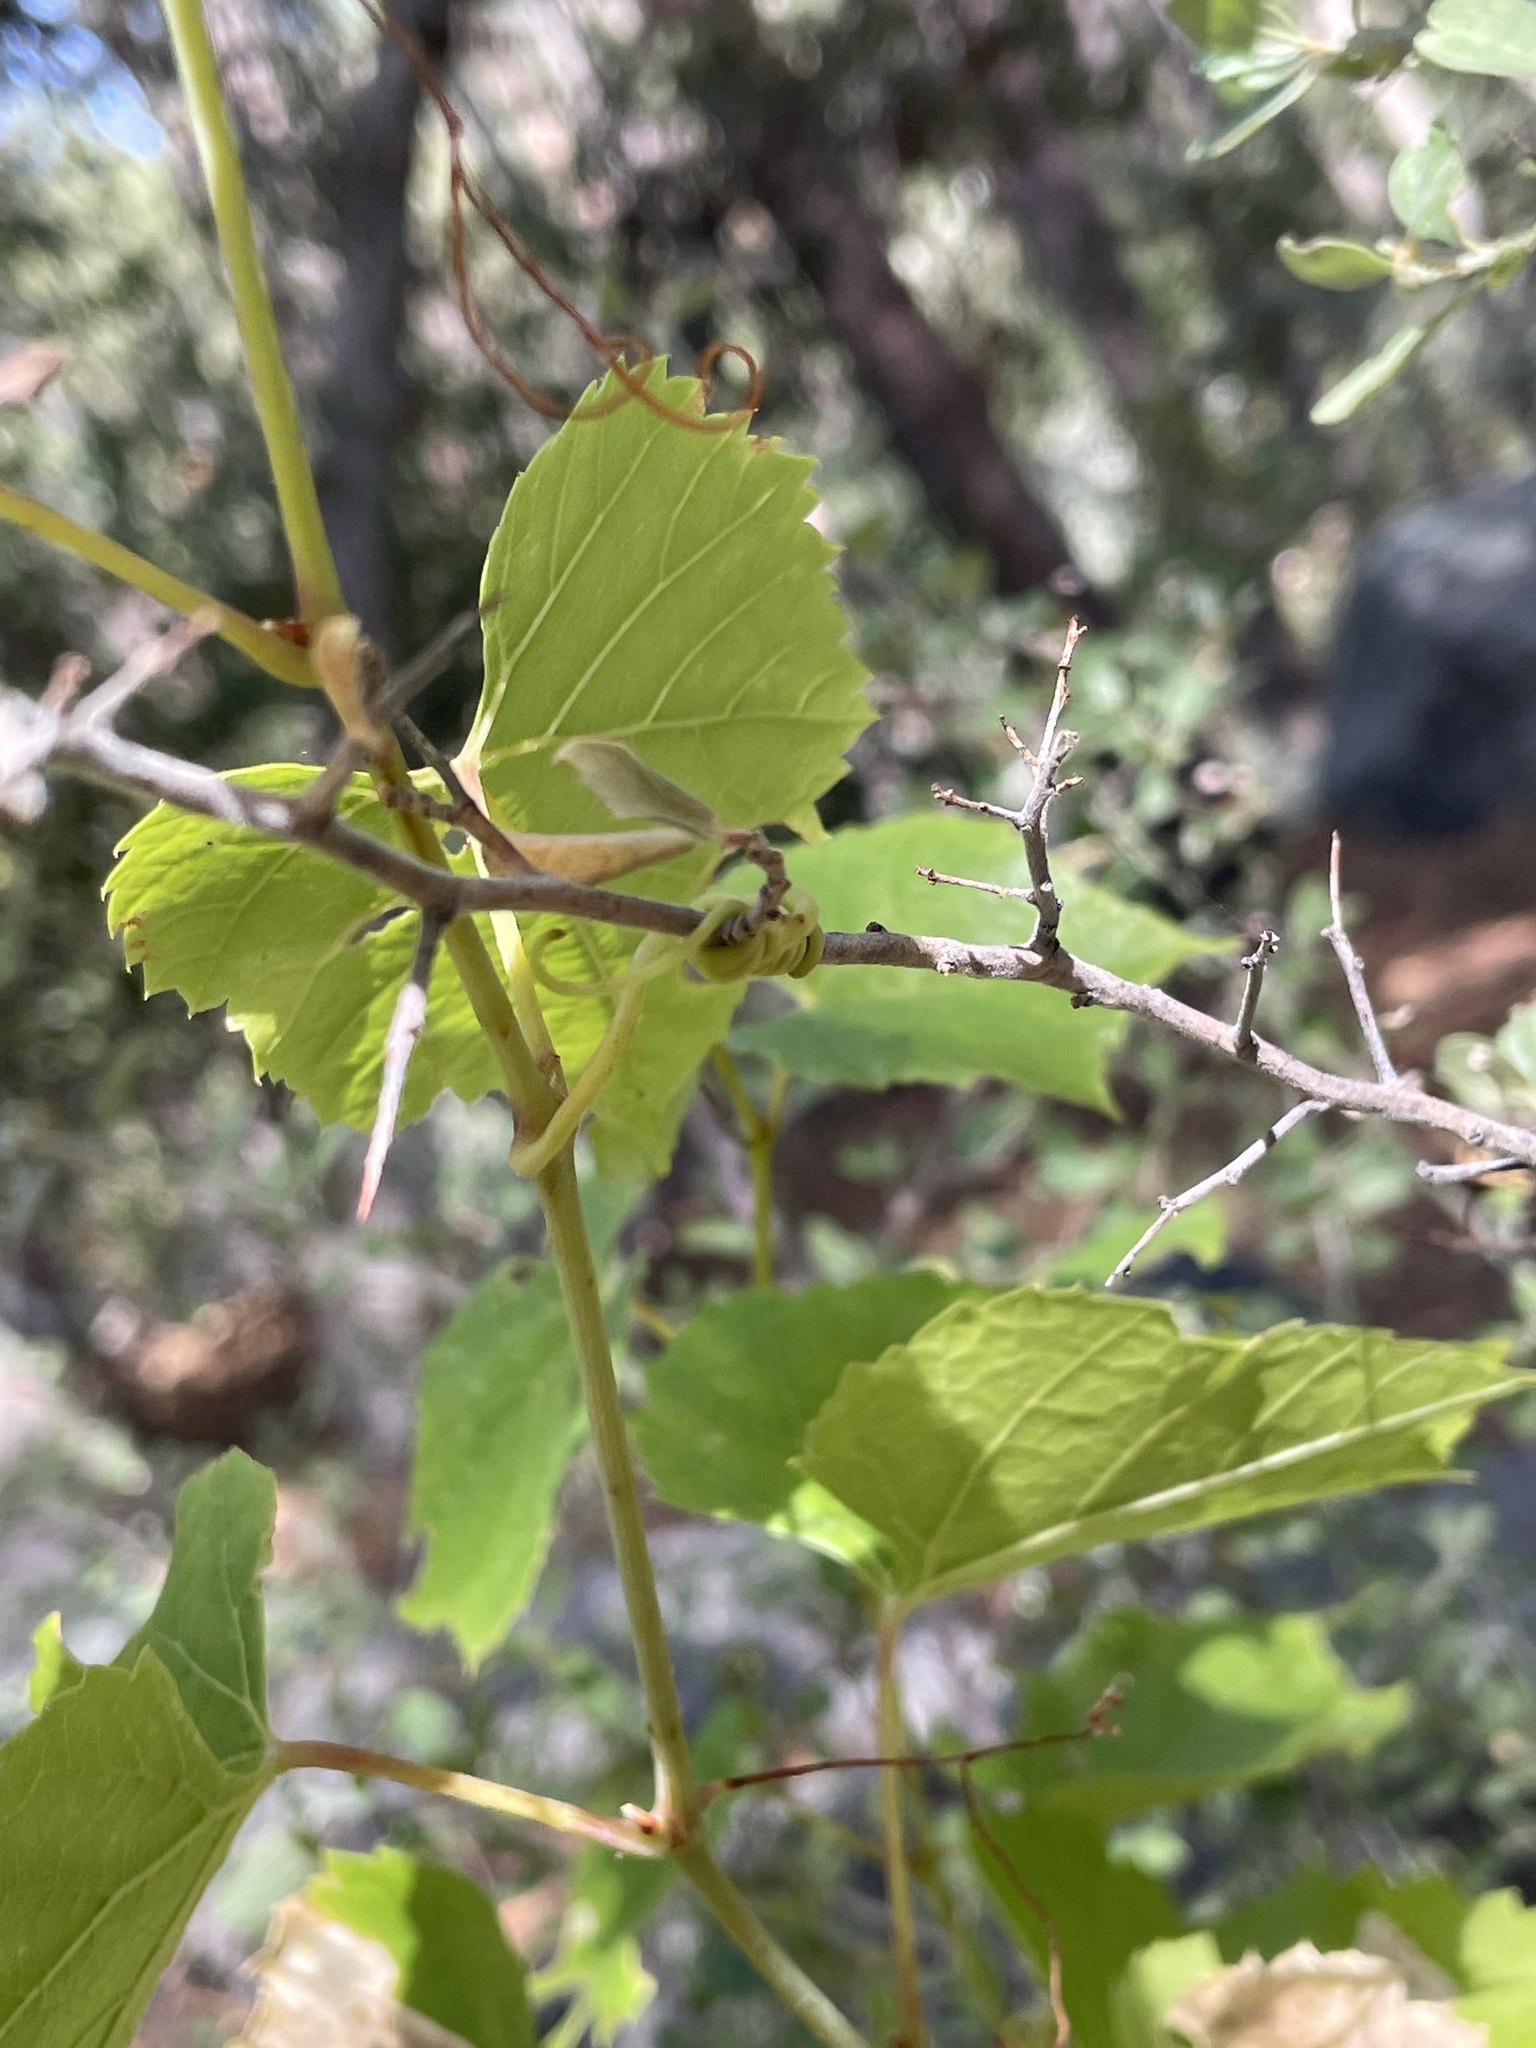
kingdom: Plantae
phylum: Tracheophyta
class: Magnoliopsida
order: Vitales
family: Vitaceae
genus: Vitis
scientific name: Vitis arizonica
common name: Canyon grape
